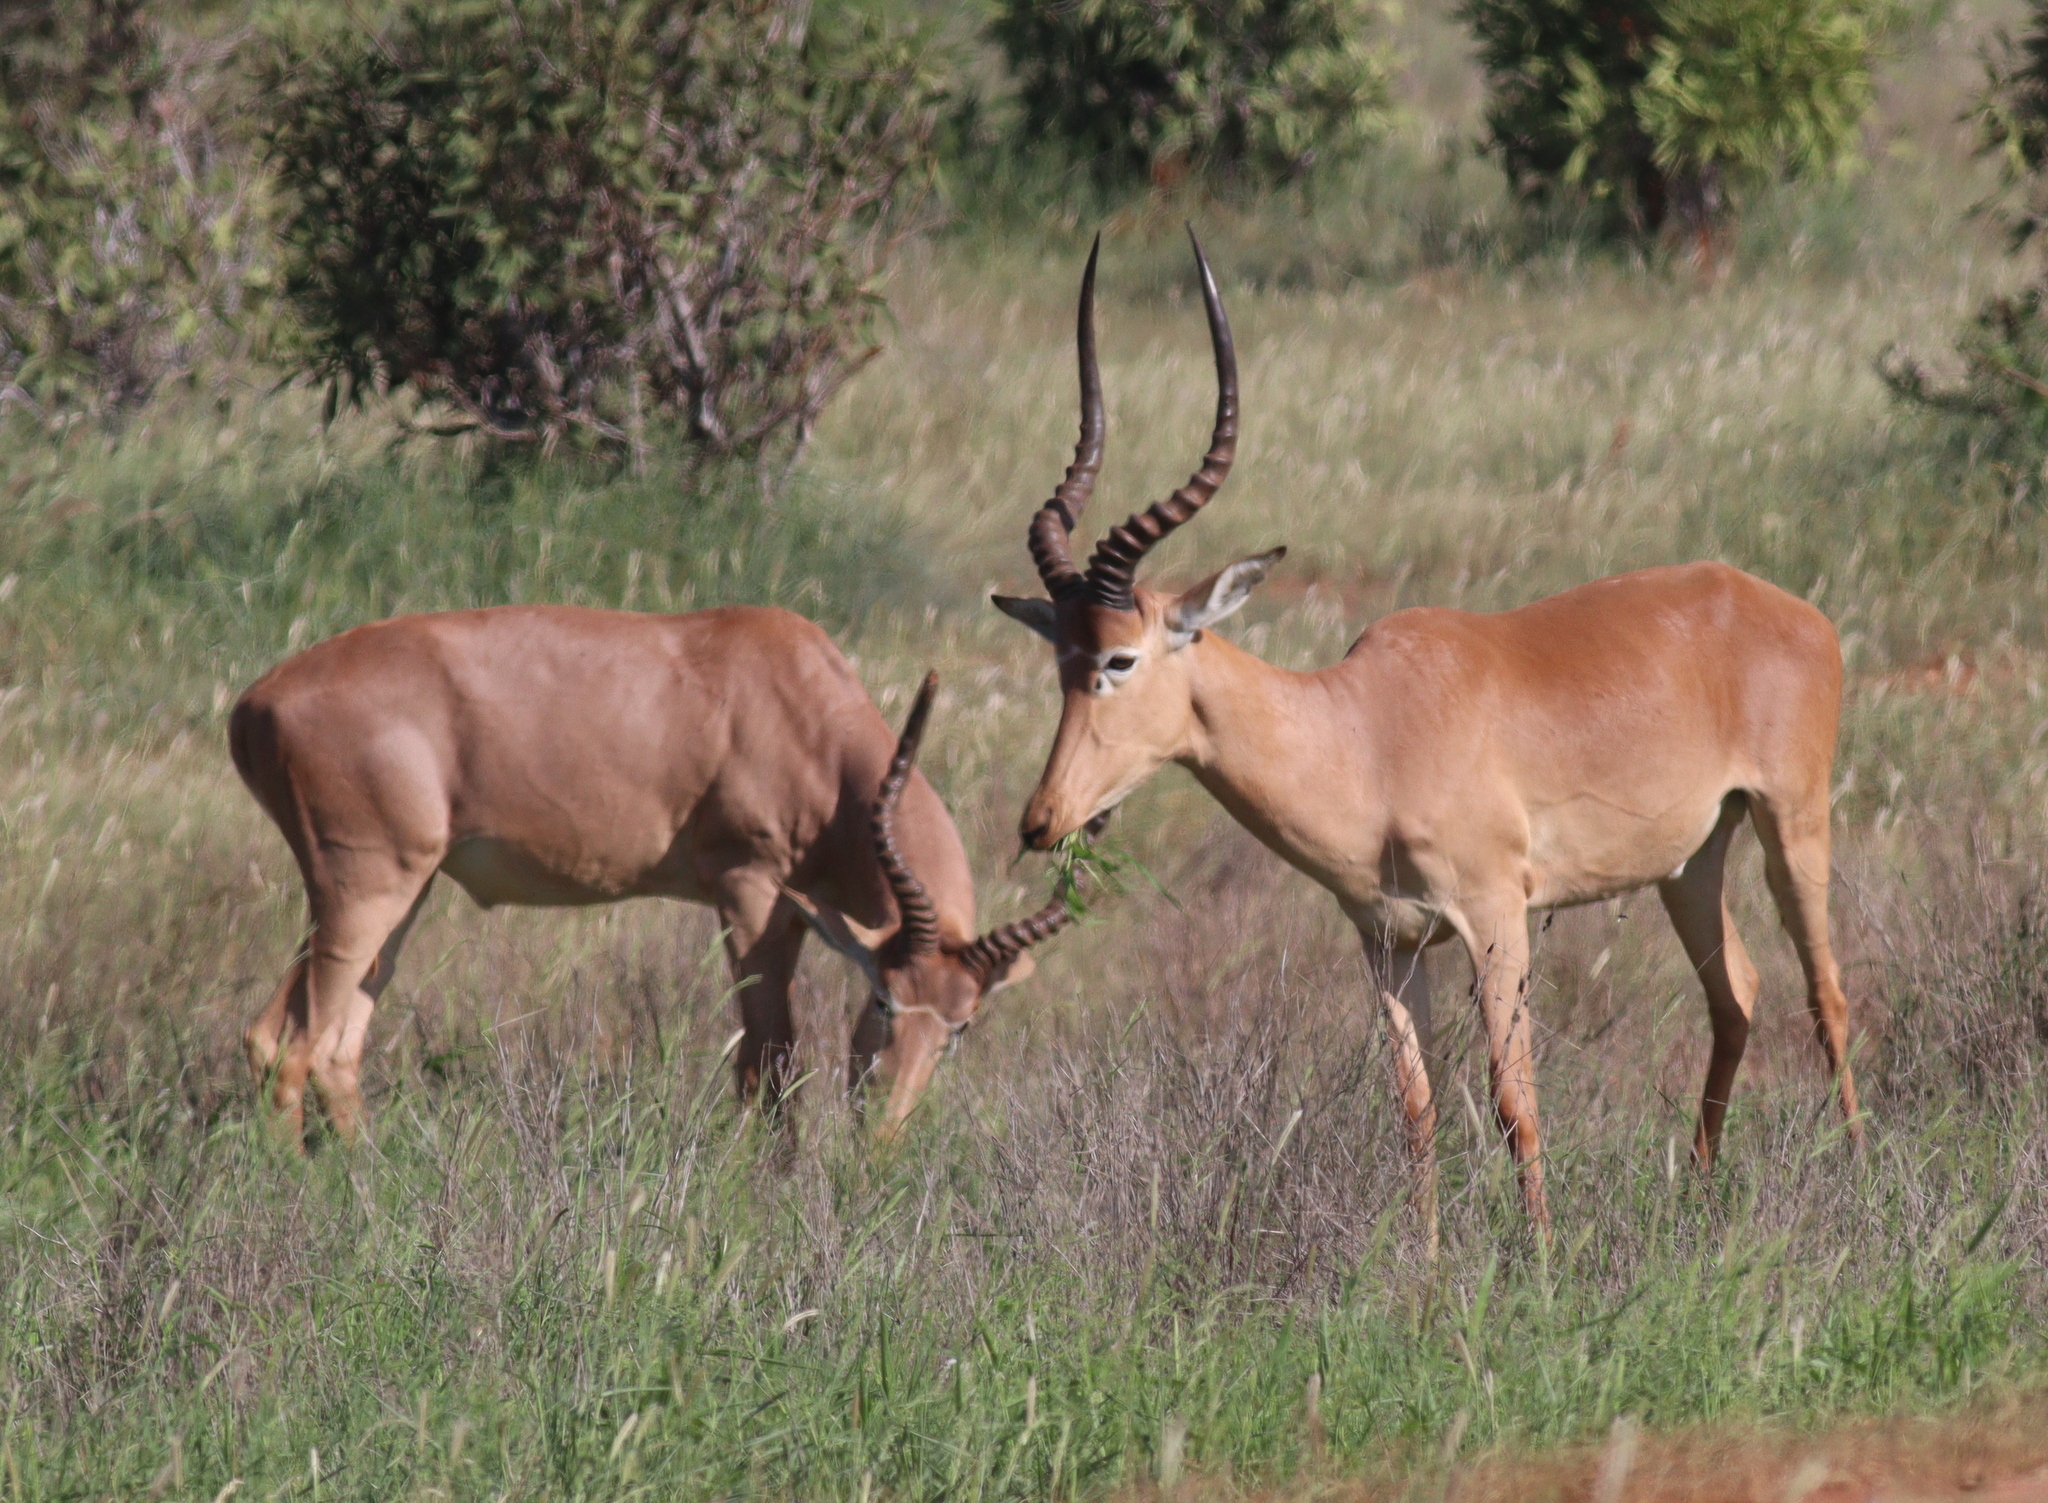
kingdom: Animalia
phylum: Chordata
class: Mammalia
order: Artiodactyla
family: Bovidae
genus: Beatragus
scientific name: Beatragus hunteri
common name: Hunter's hartebeest
